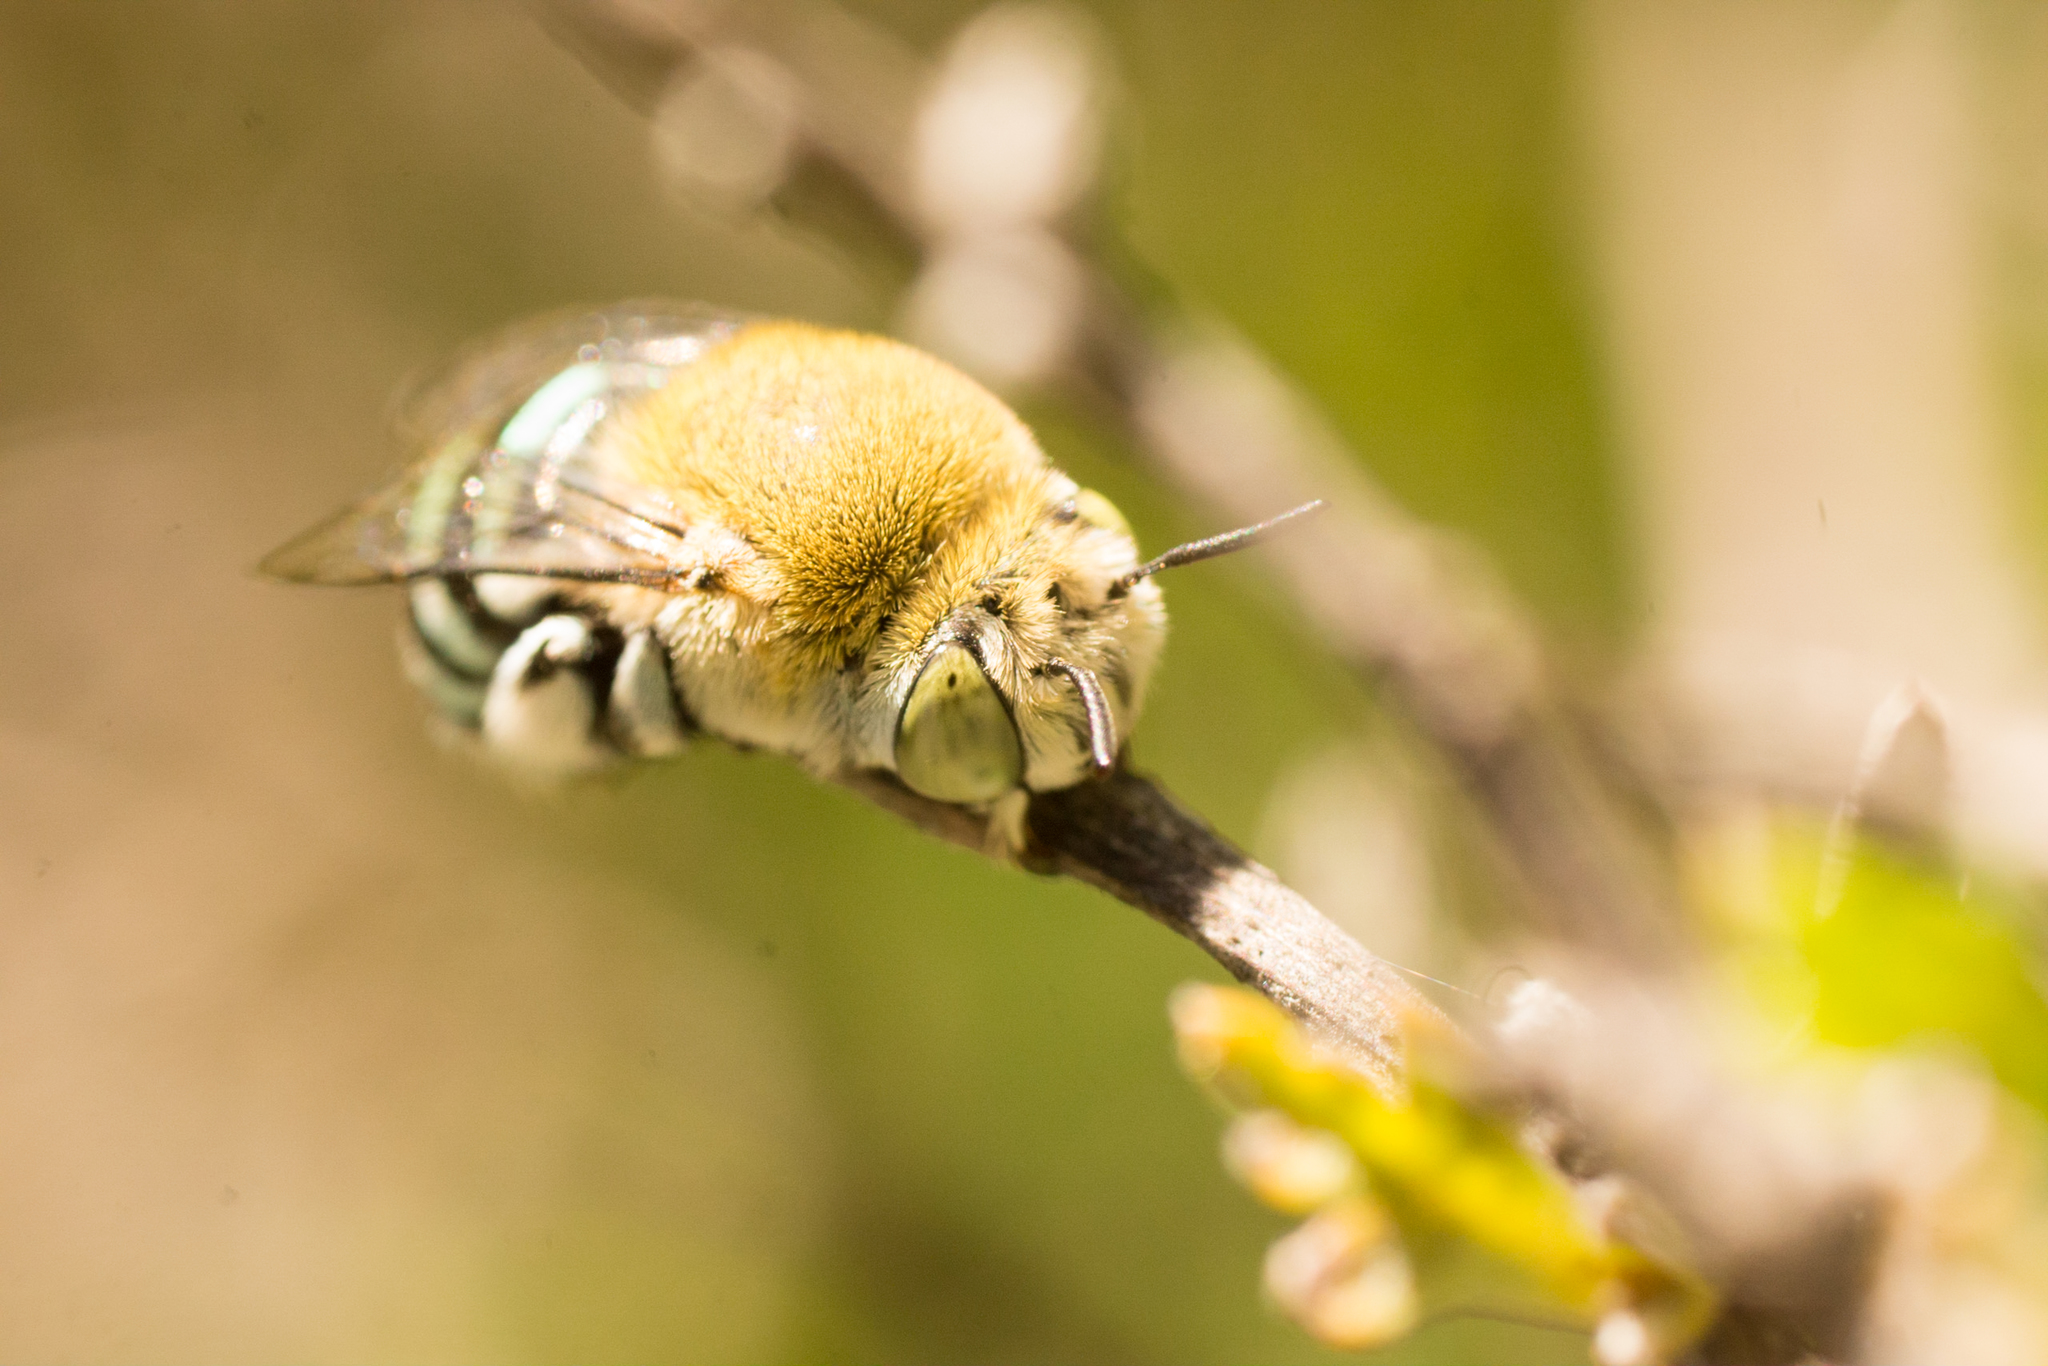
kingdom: Animalia
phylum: Arthropoda
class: Insecta
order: Hymenoptera
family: Apidae
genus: Amegilla
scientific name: Amegilla chlorocyanea
